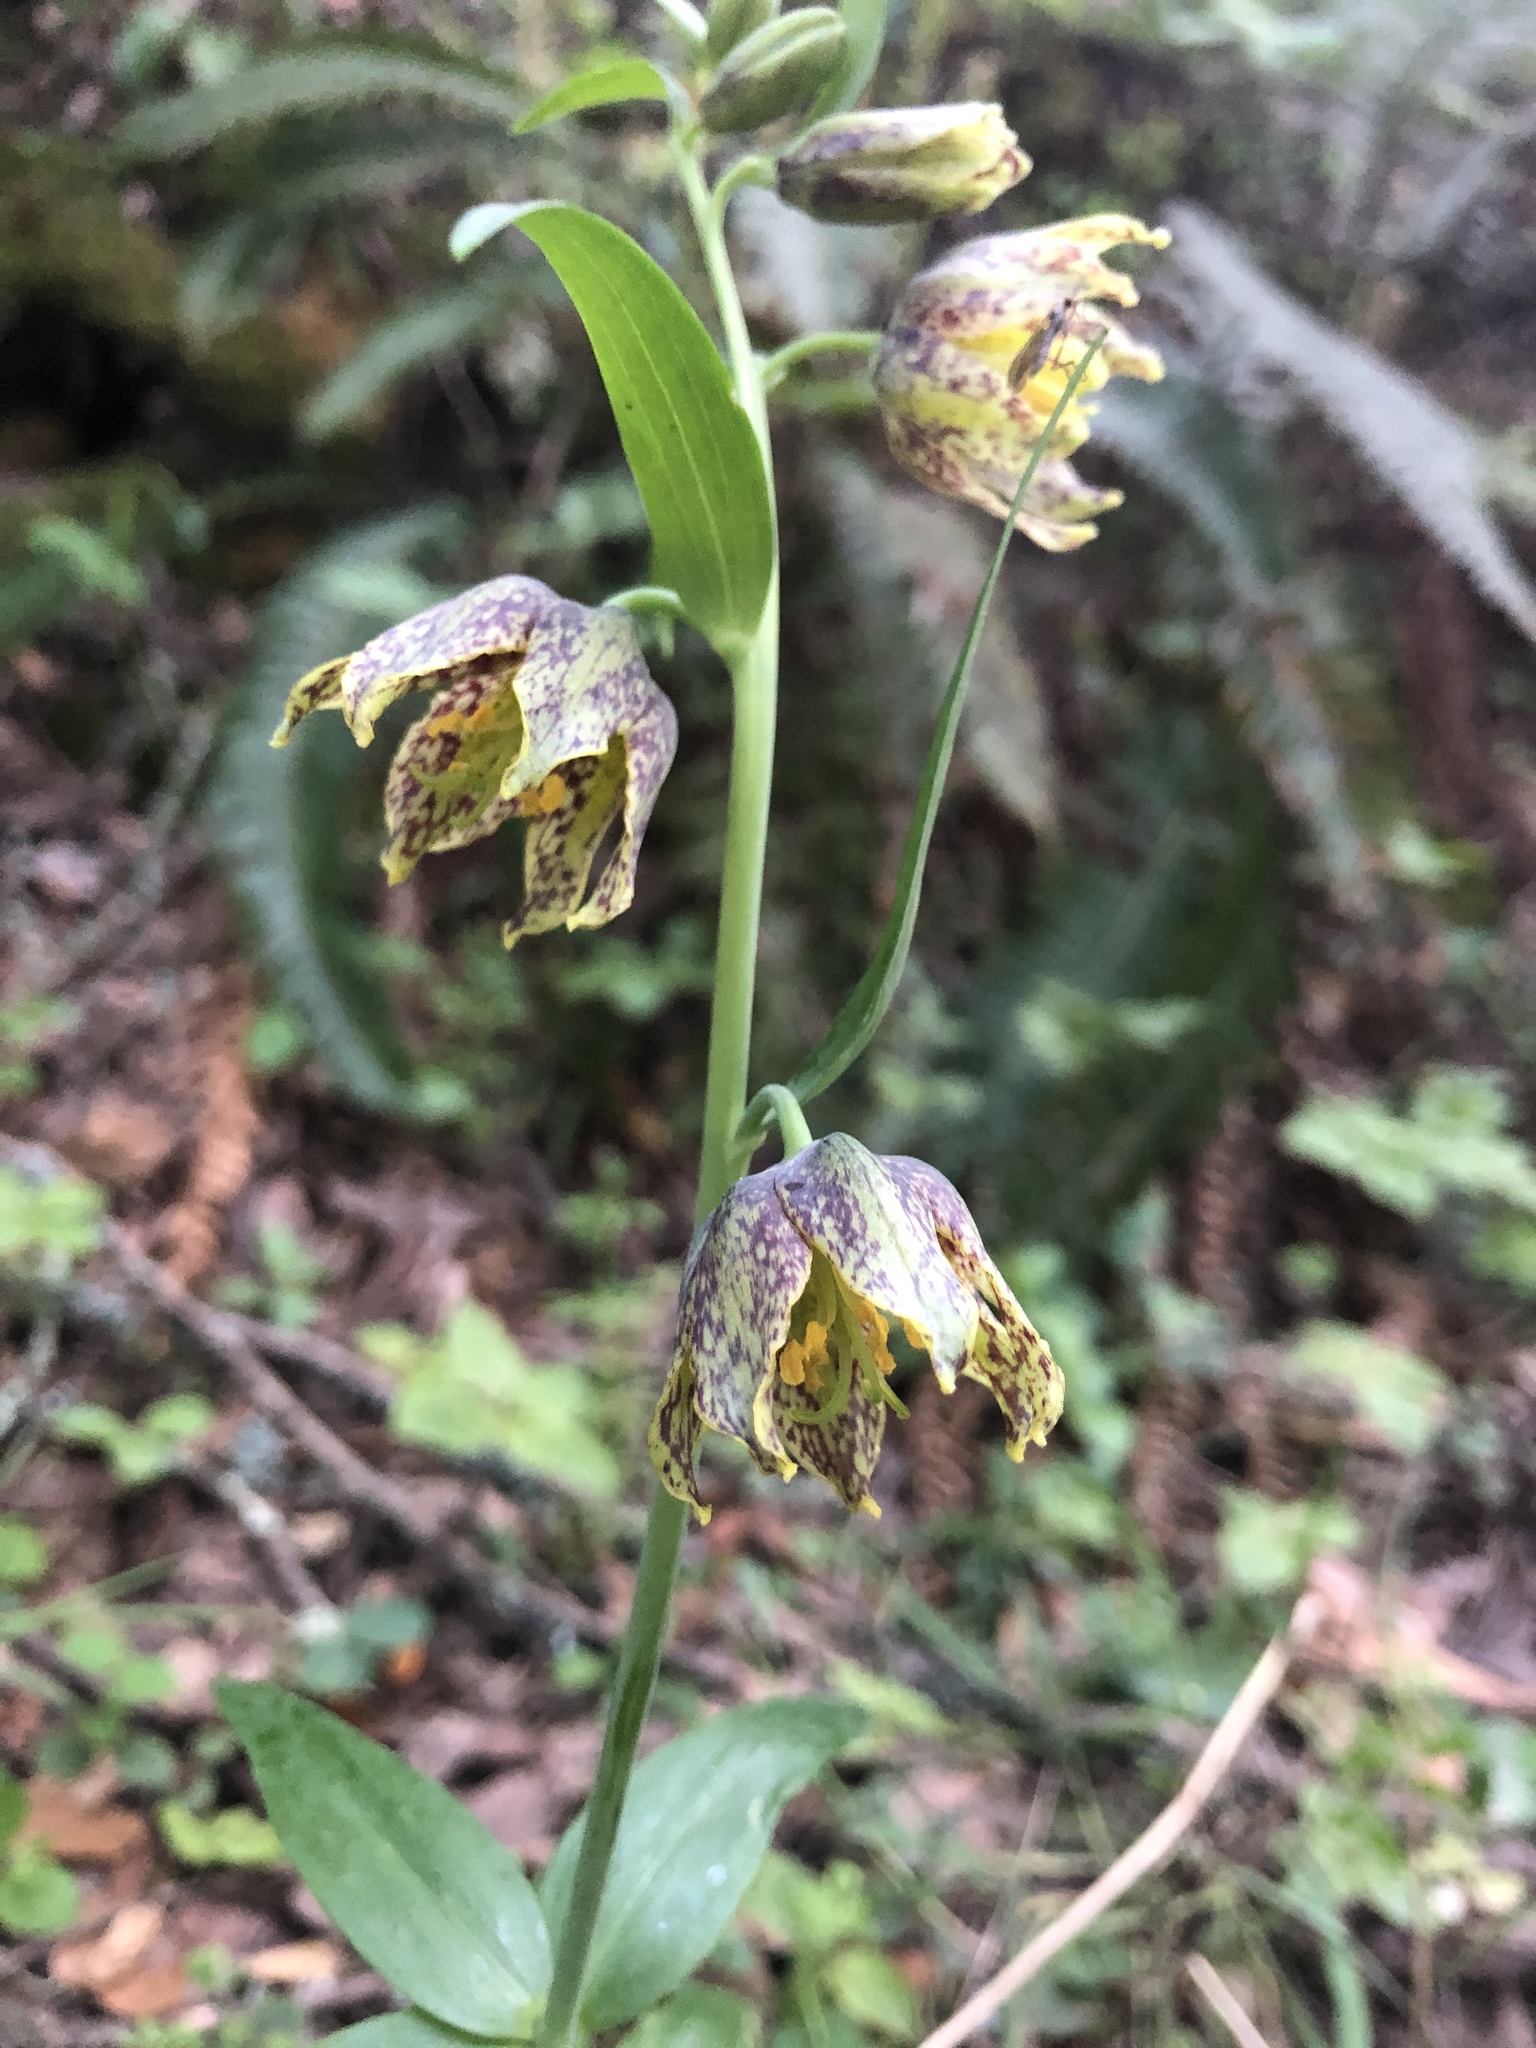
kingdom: Plantae
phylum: Tracheophyta
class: Liliopsida
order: Liliales
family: Liliaceae
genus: Fritillaria
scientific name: Fritillaria affinis
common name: Ojai fritillary
